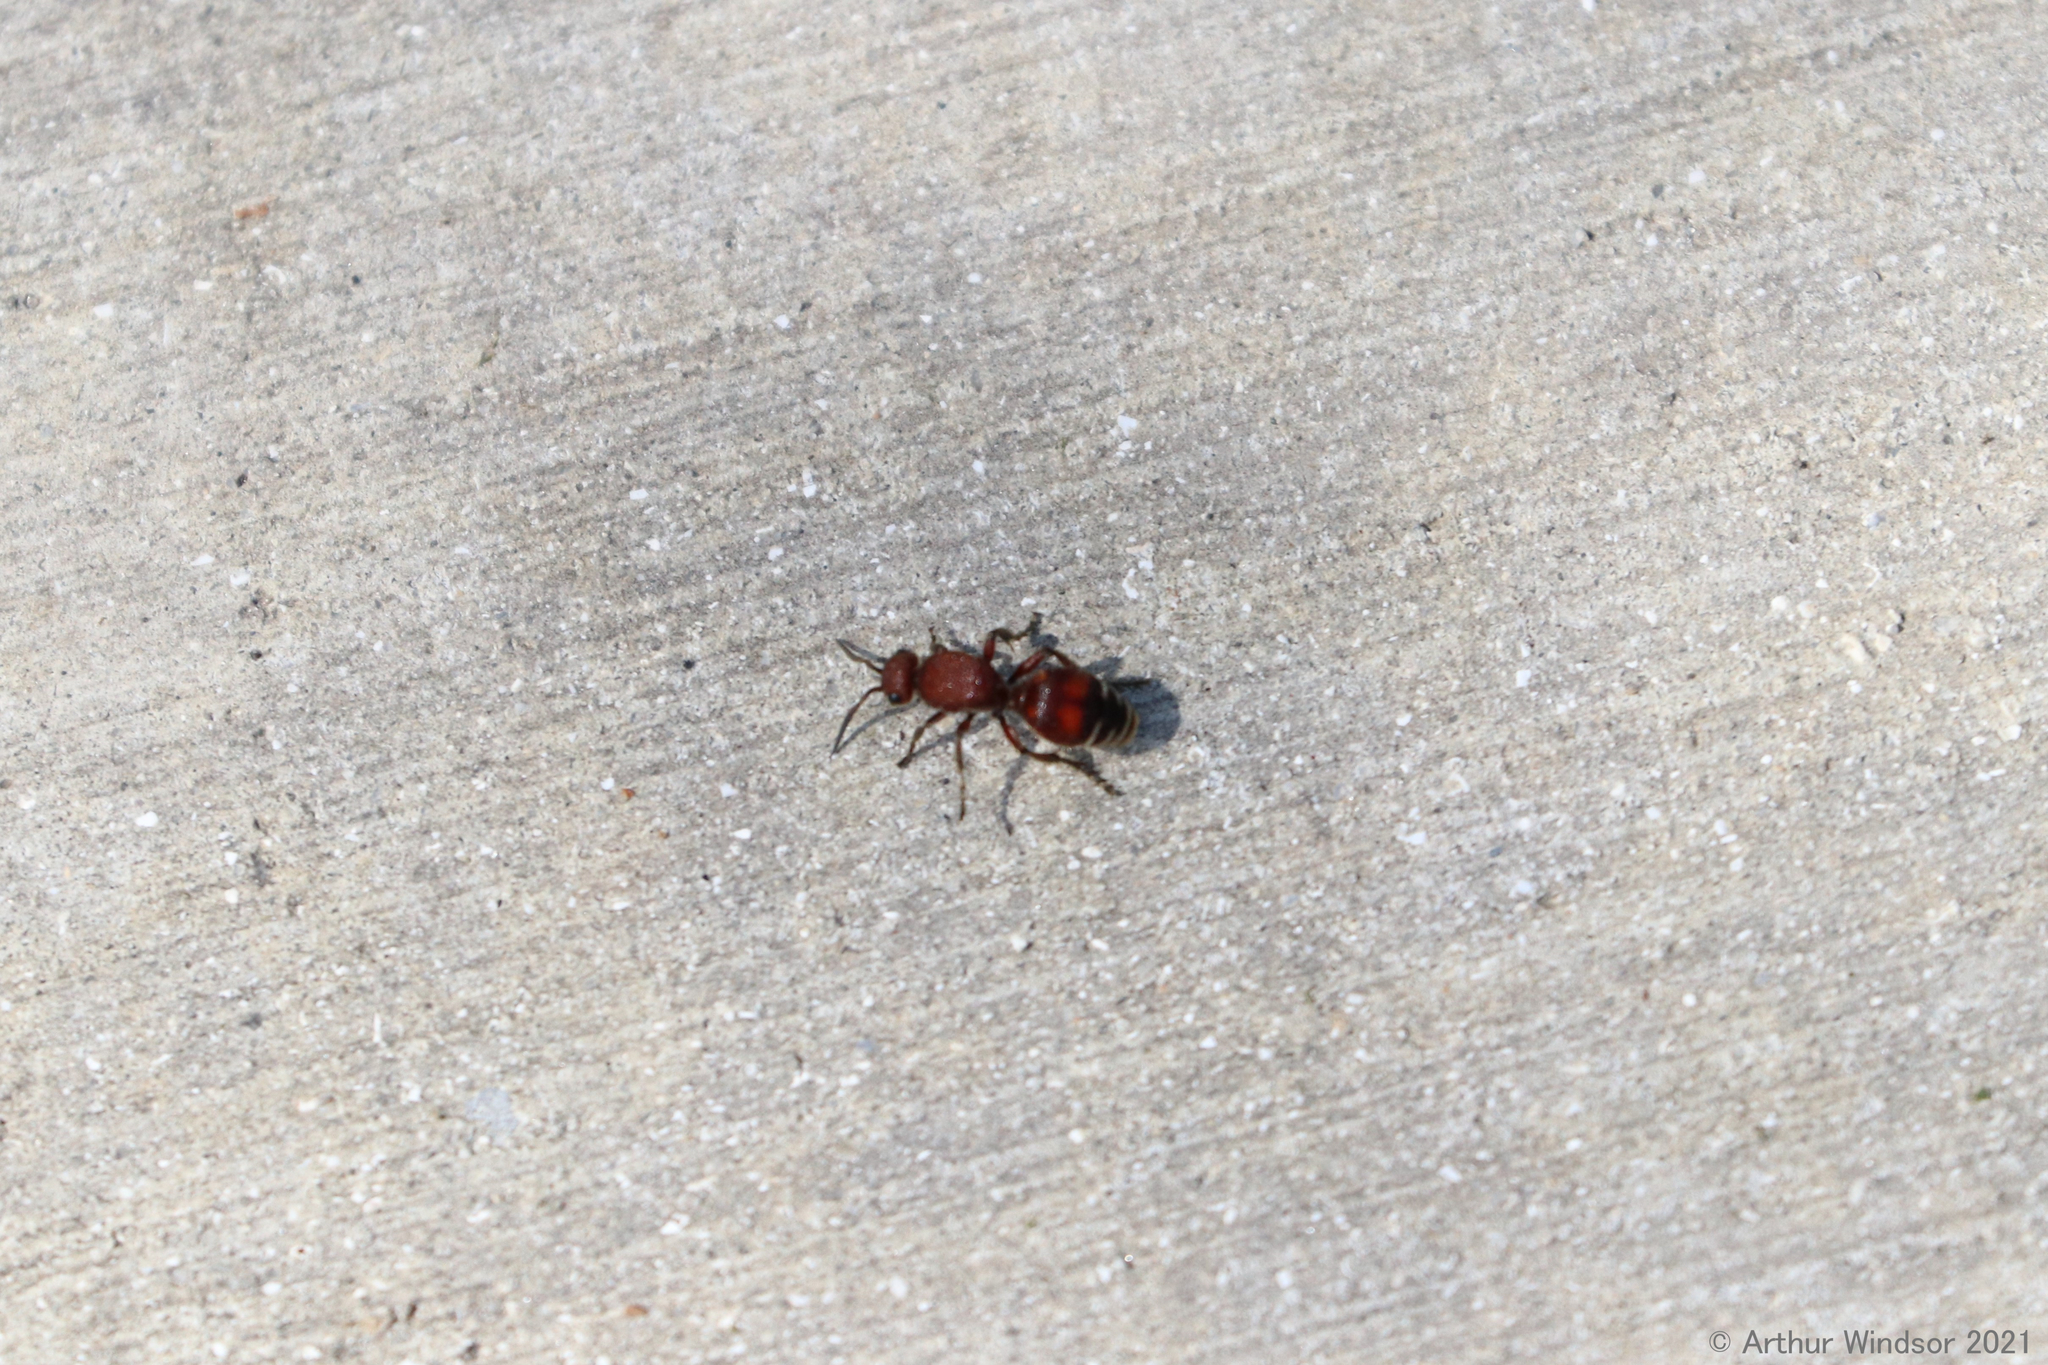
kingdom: Animalia
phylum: Arthropoda
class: Insecta
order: Hymenoptera
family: Mutillidae
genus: Dasymutilla
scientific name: Dasymutilla
